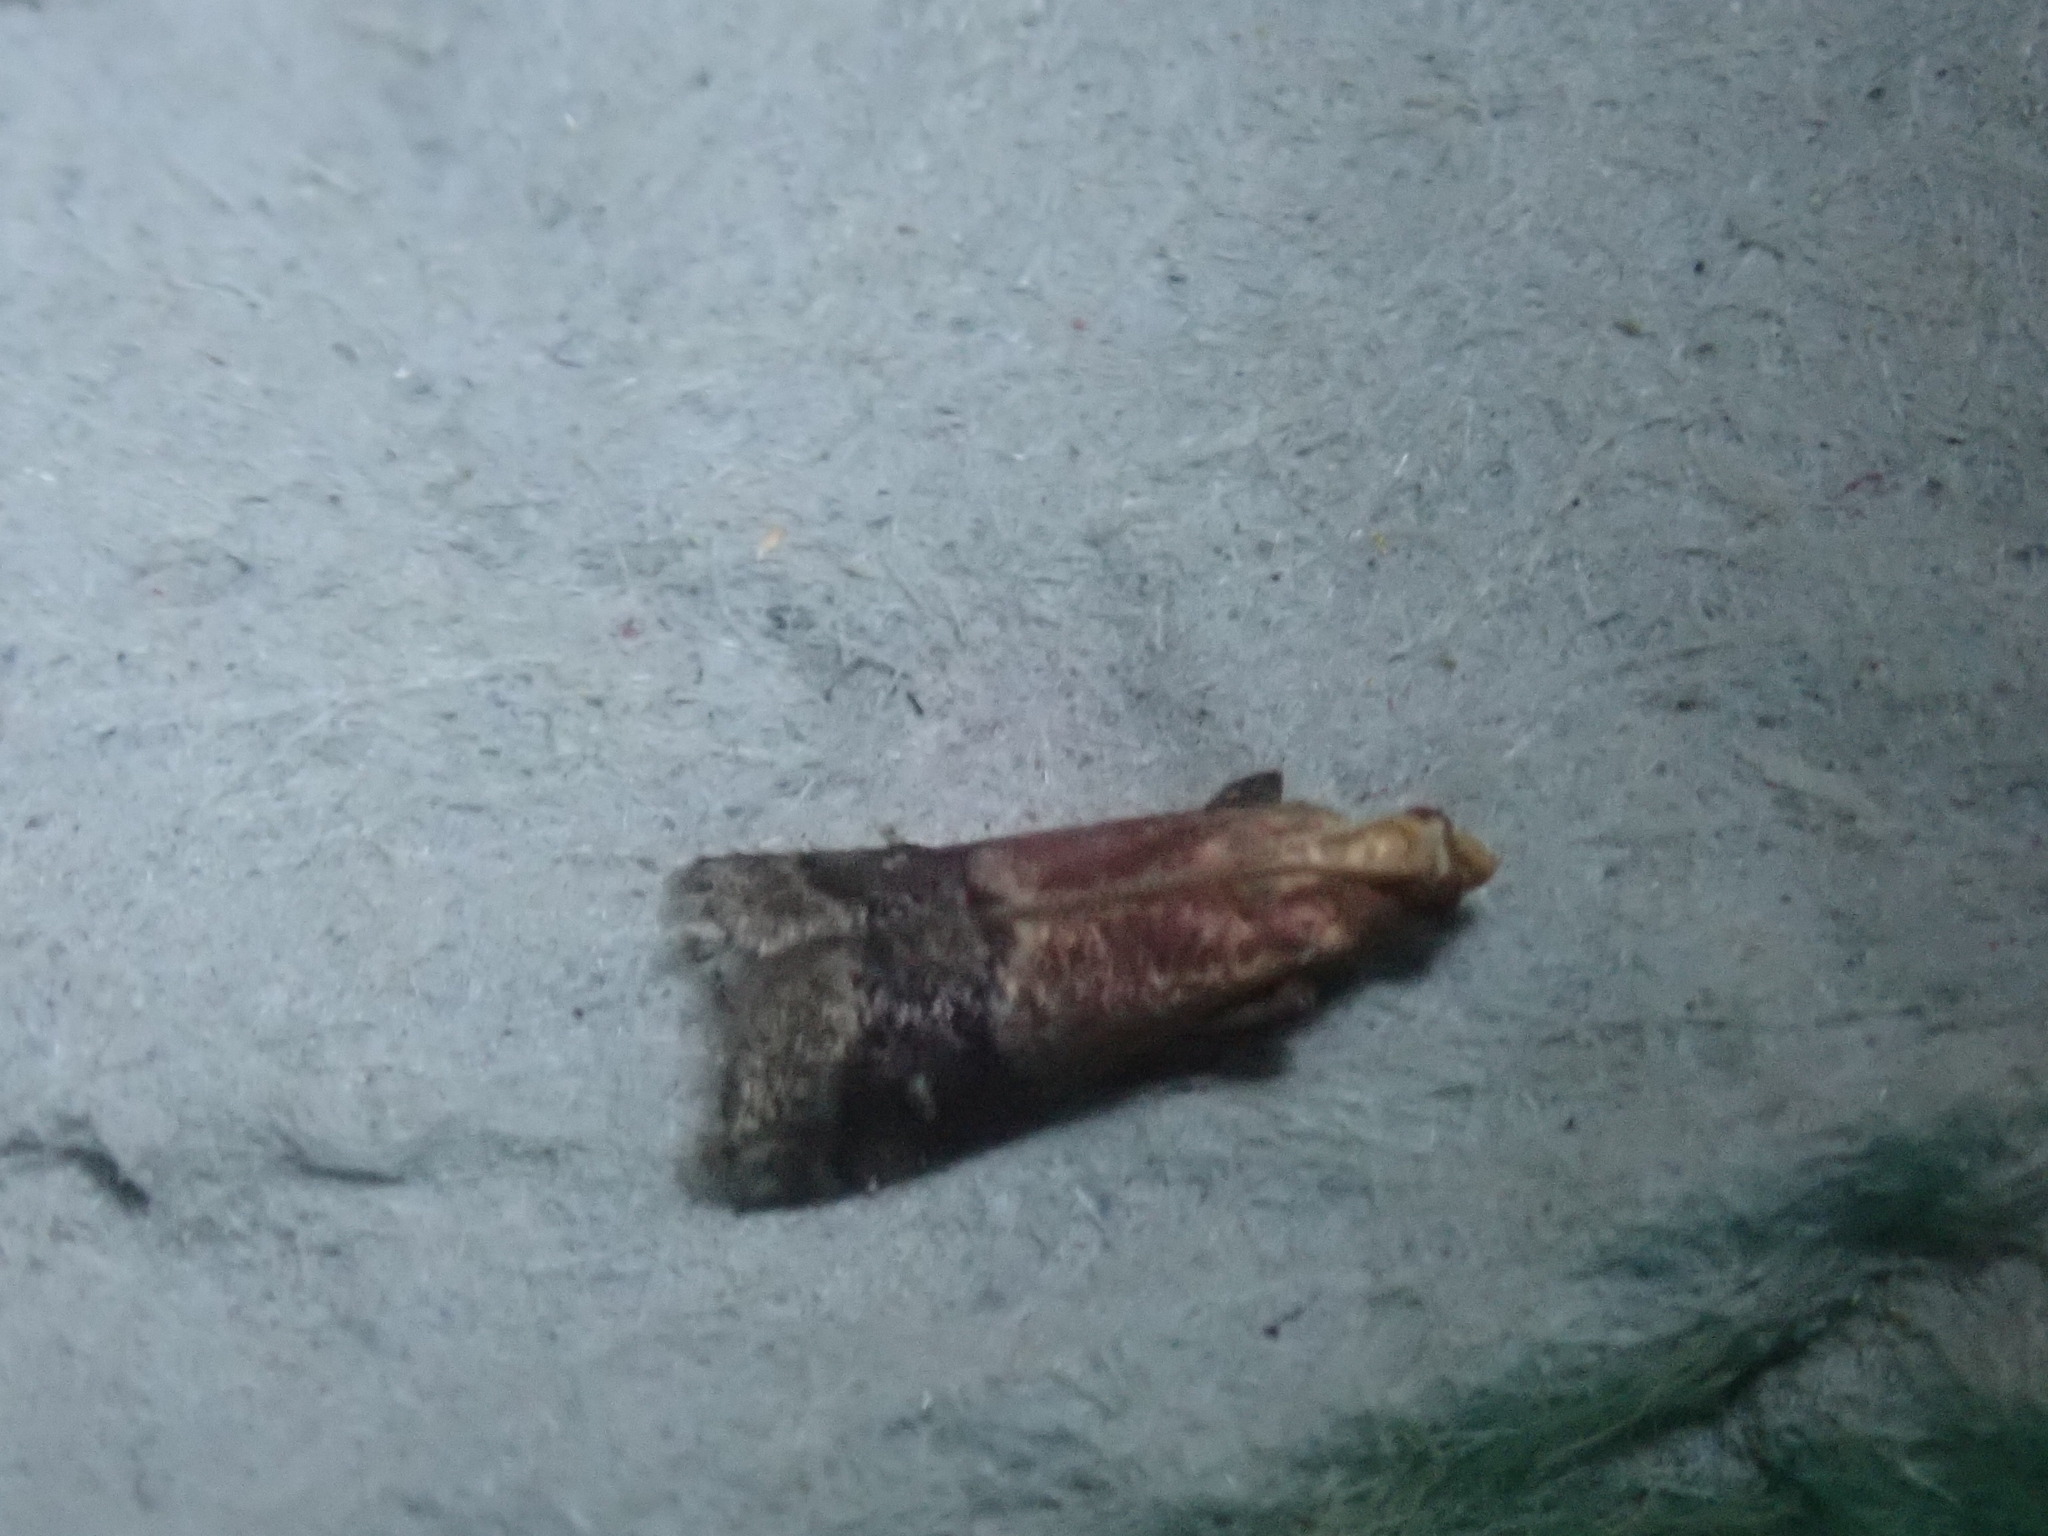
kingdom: Animalia
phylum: Arthropoda
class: Insecta
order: Lepidoptera
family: Pyralidae
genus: Eulogia
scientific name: Eulogia ochrifrontella
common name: Broad-banded eulogia moth
